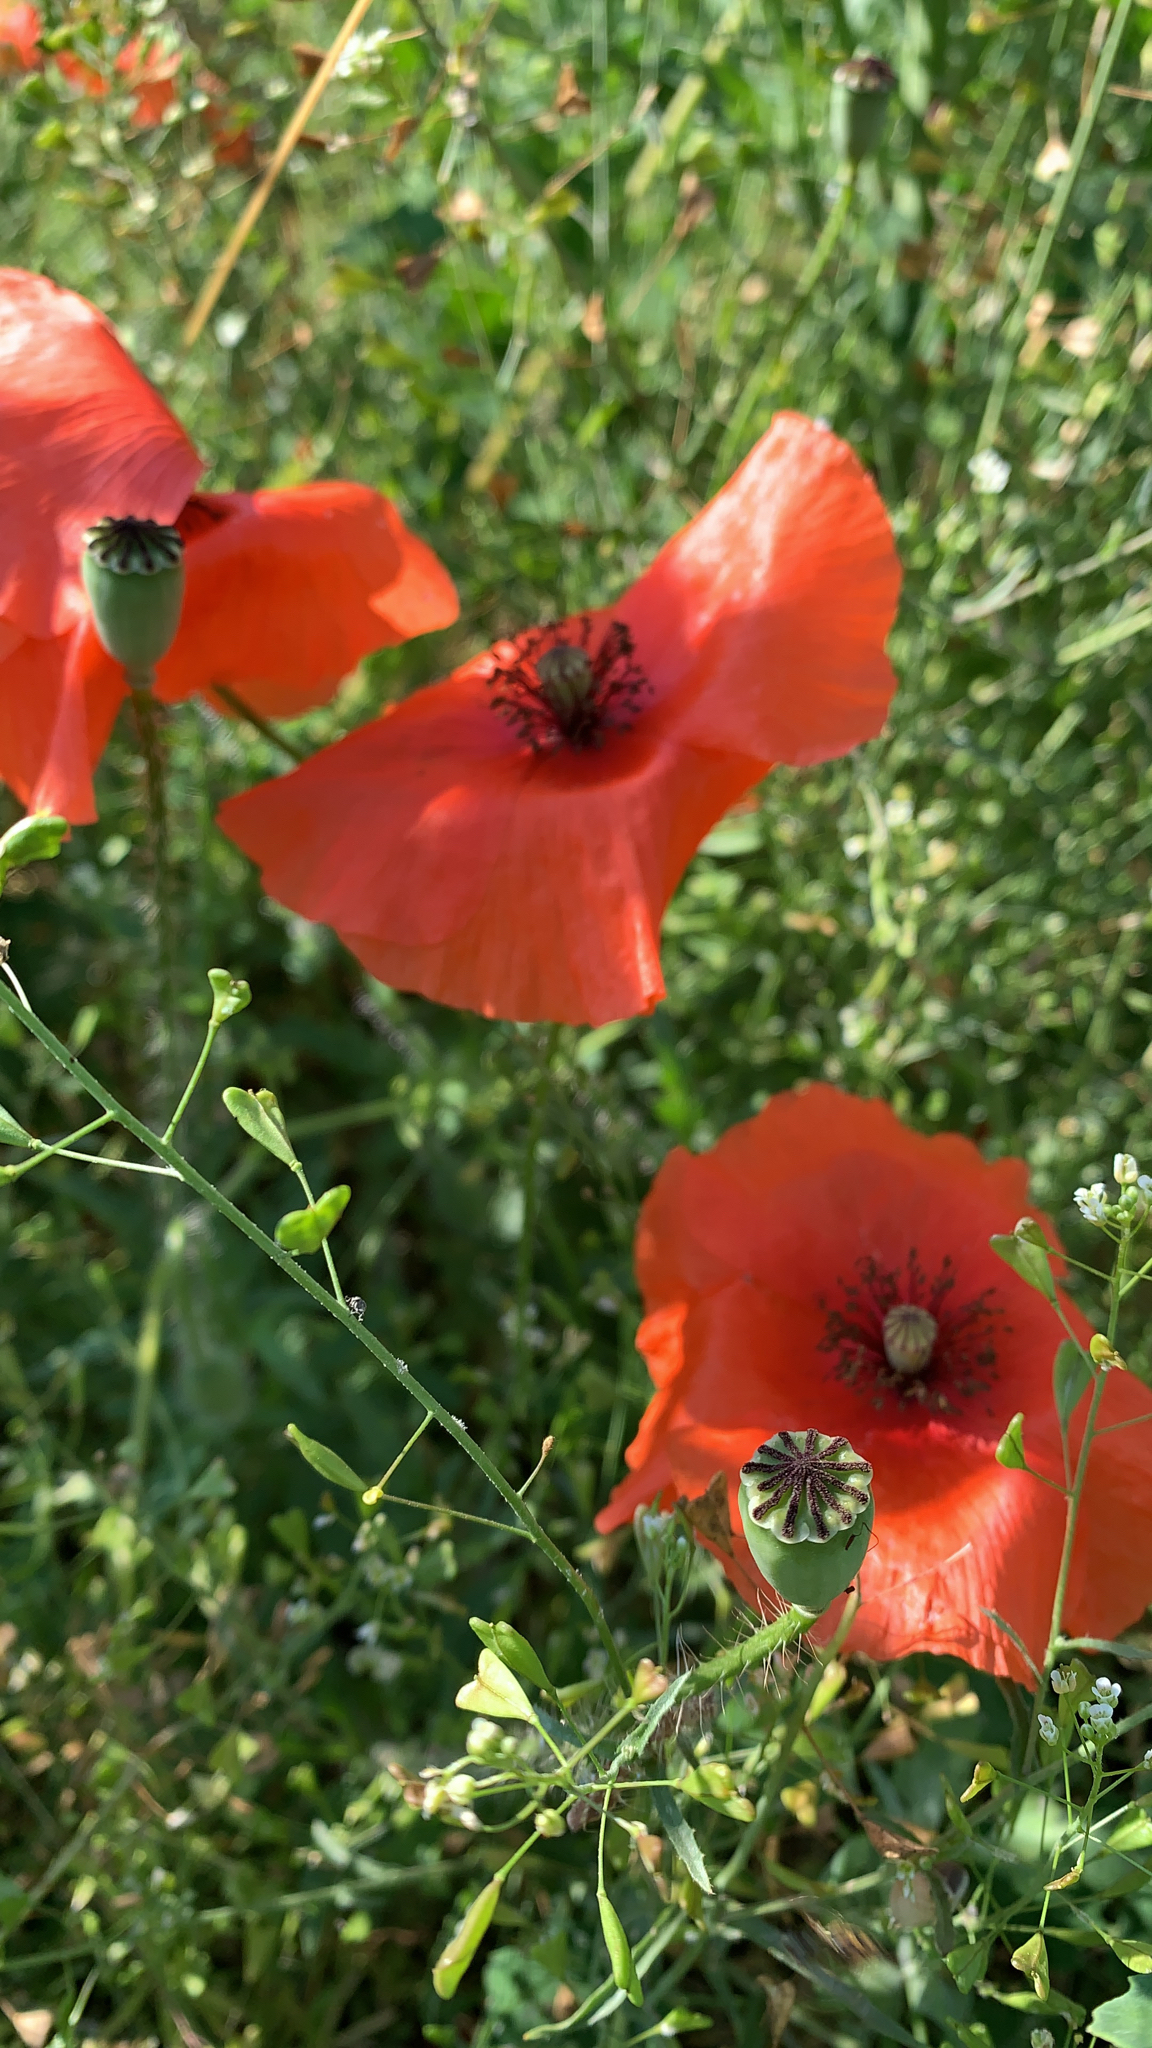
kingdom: Plantae
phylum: Tracheophyta
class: Magnoliopsida
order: Ranunculales
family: Papaveraceae
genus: Papaver
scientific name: Papaver rhoeas
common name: Corn poppy
